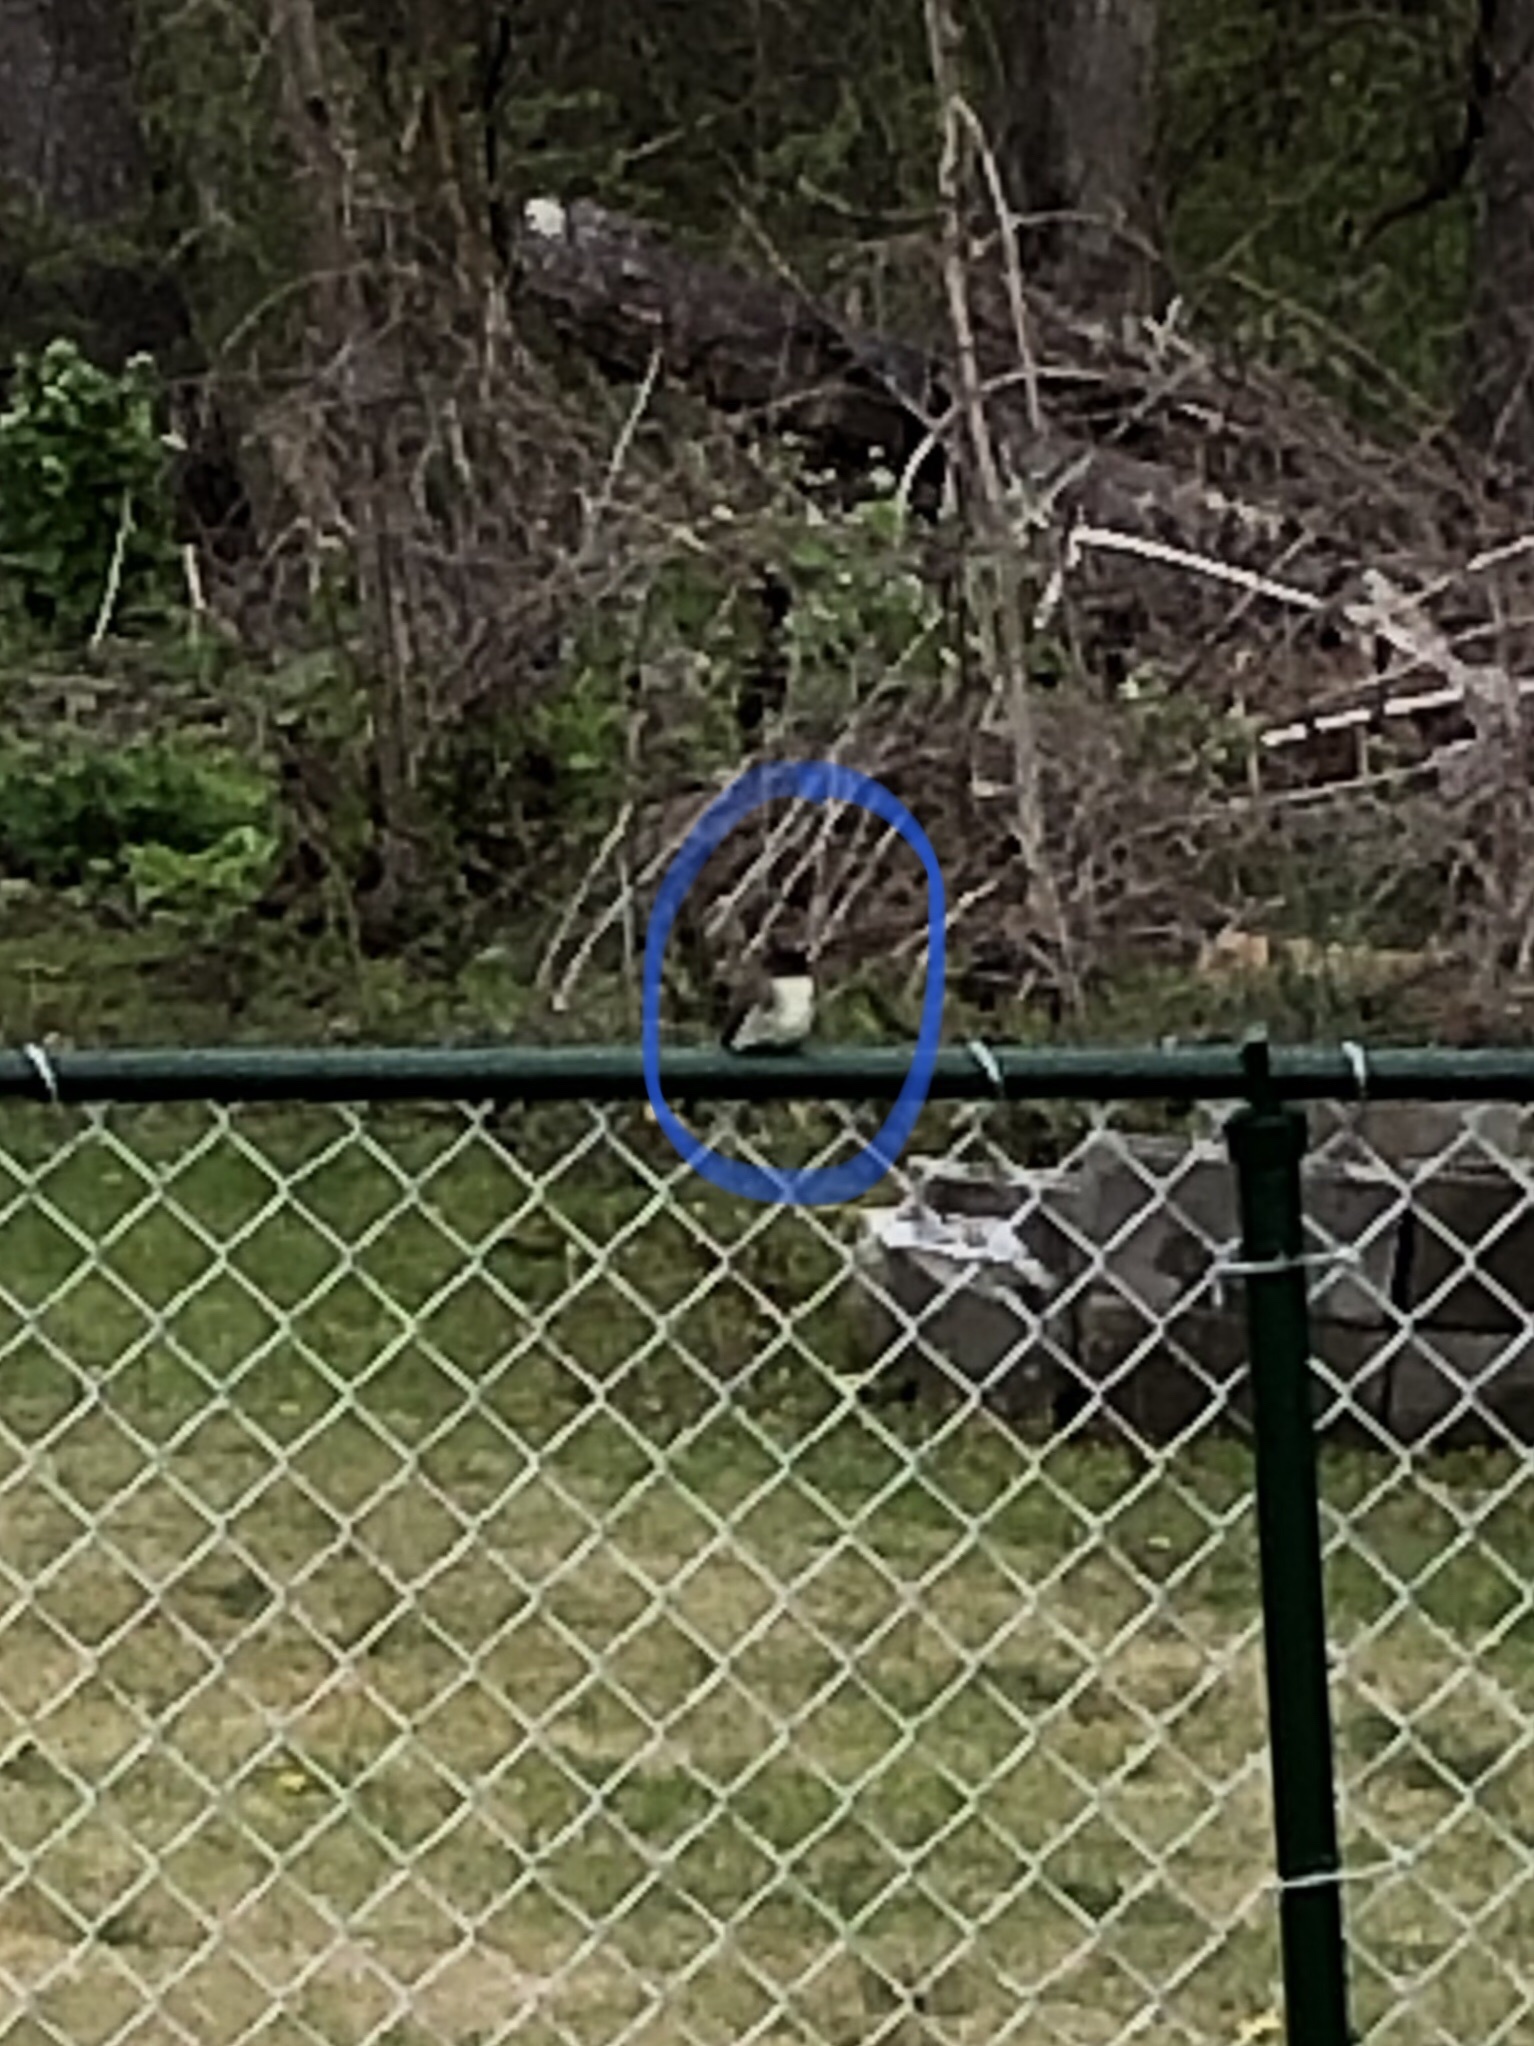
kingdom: Animalia
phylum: Chordata
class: Aves
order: Passeriformes
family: Tyrannidae
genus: Sayornis
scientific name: Sayornis phoebe
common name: Eastern phoebe
